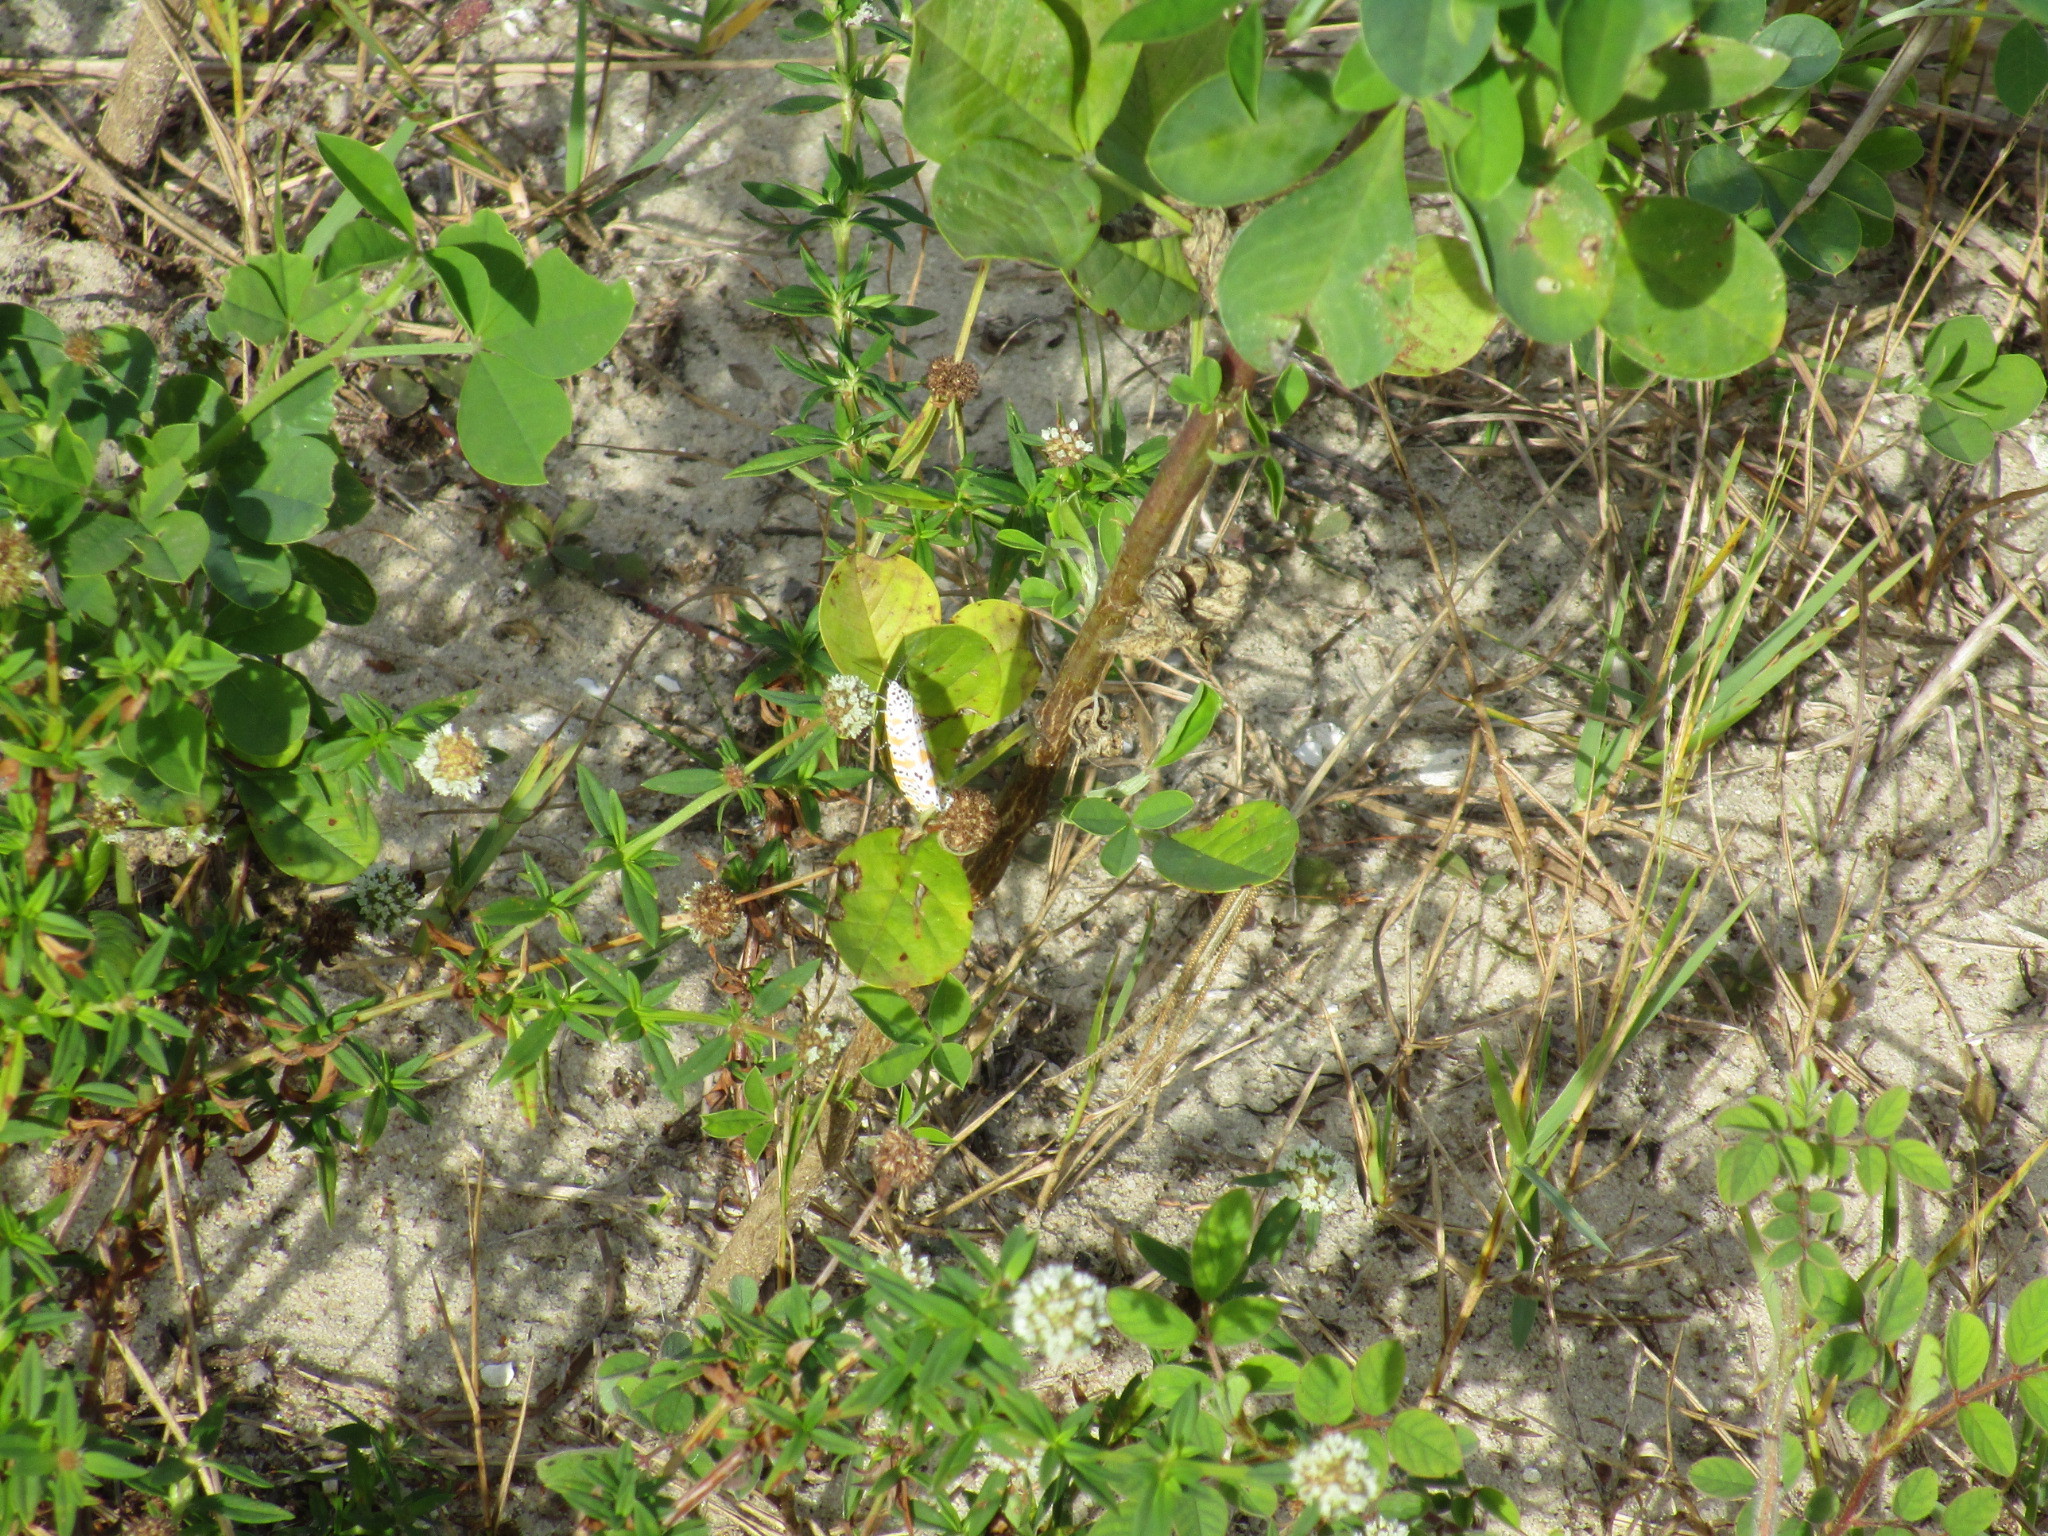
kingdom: Animalia
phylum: Arthropoda
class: Insecta
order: Lepidoptera
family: Erebidae
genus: Utetheisa
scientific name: Utetheisa ornatrix
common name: Beautiful utetheisa
